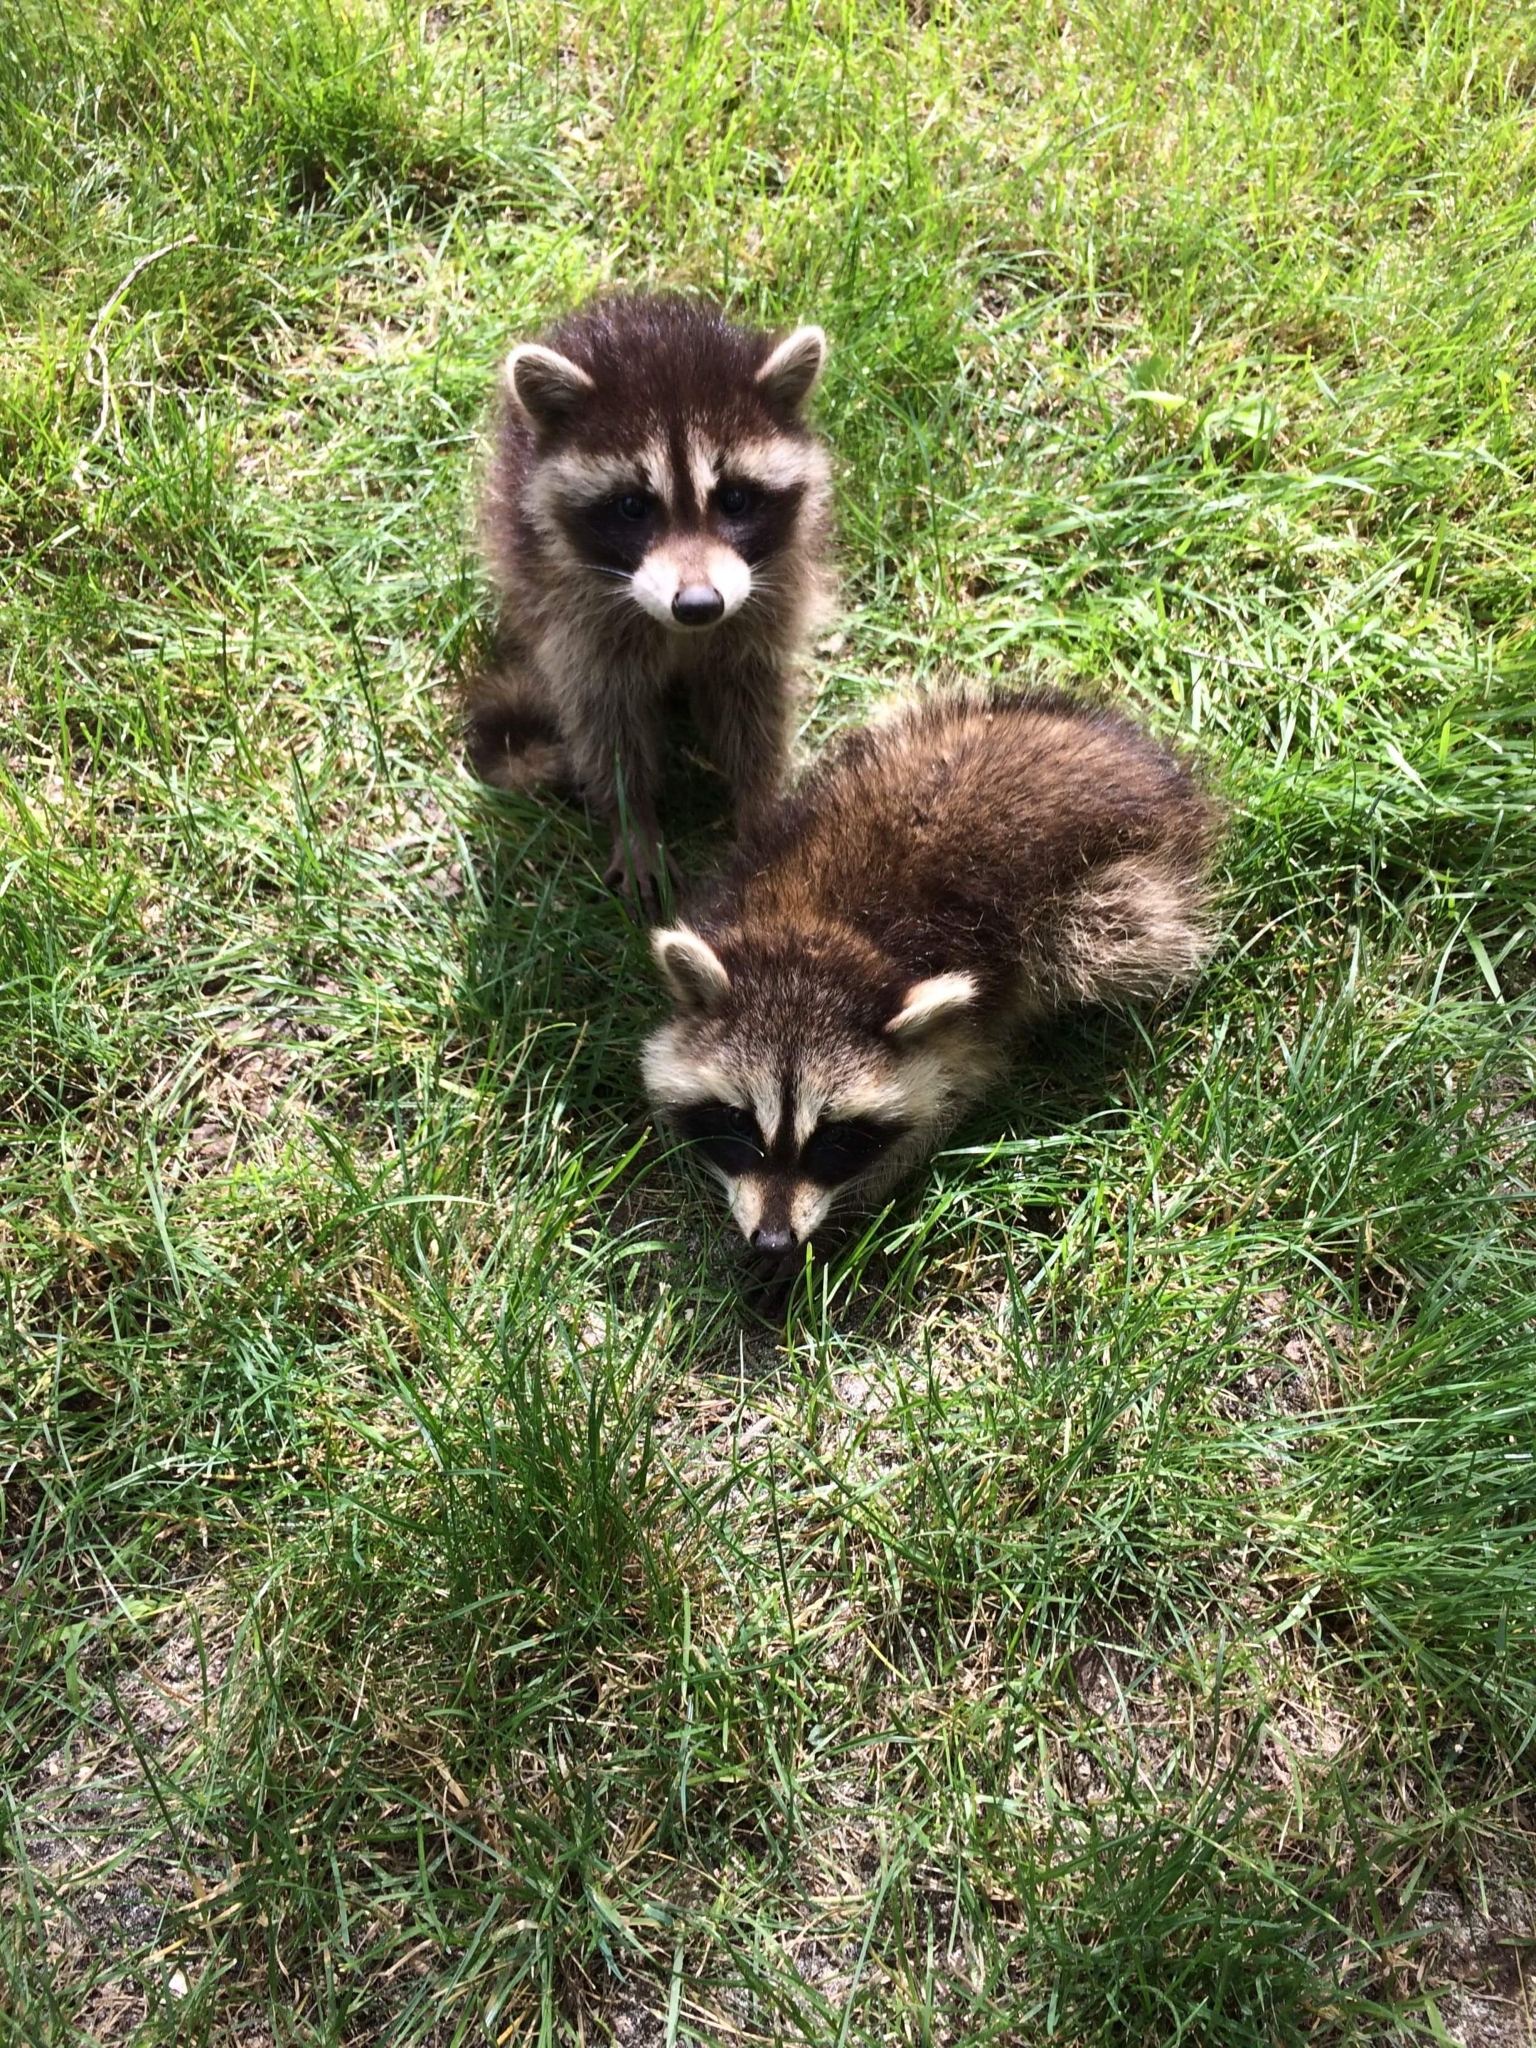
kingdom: Animalia
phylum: Chordata
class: Mammalia
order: Carnivora
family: Procyonidae
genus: Procyon
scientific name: Procyon lotor
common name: Raccoon
